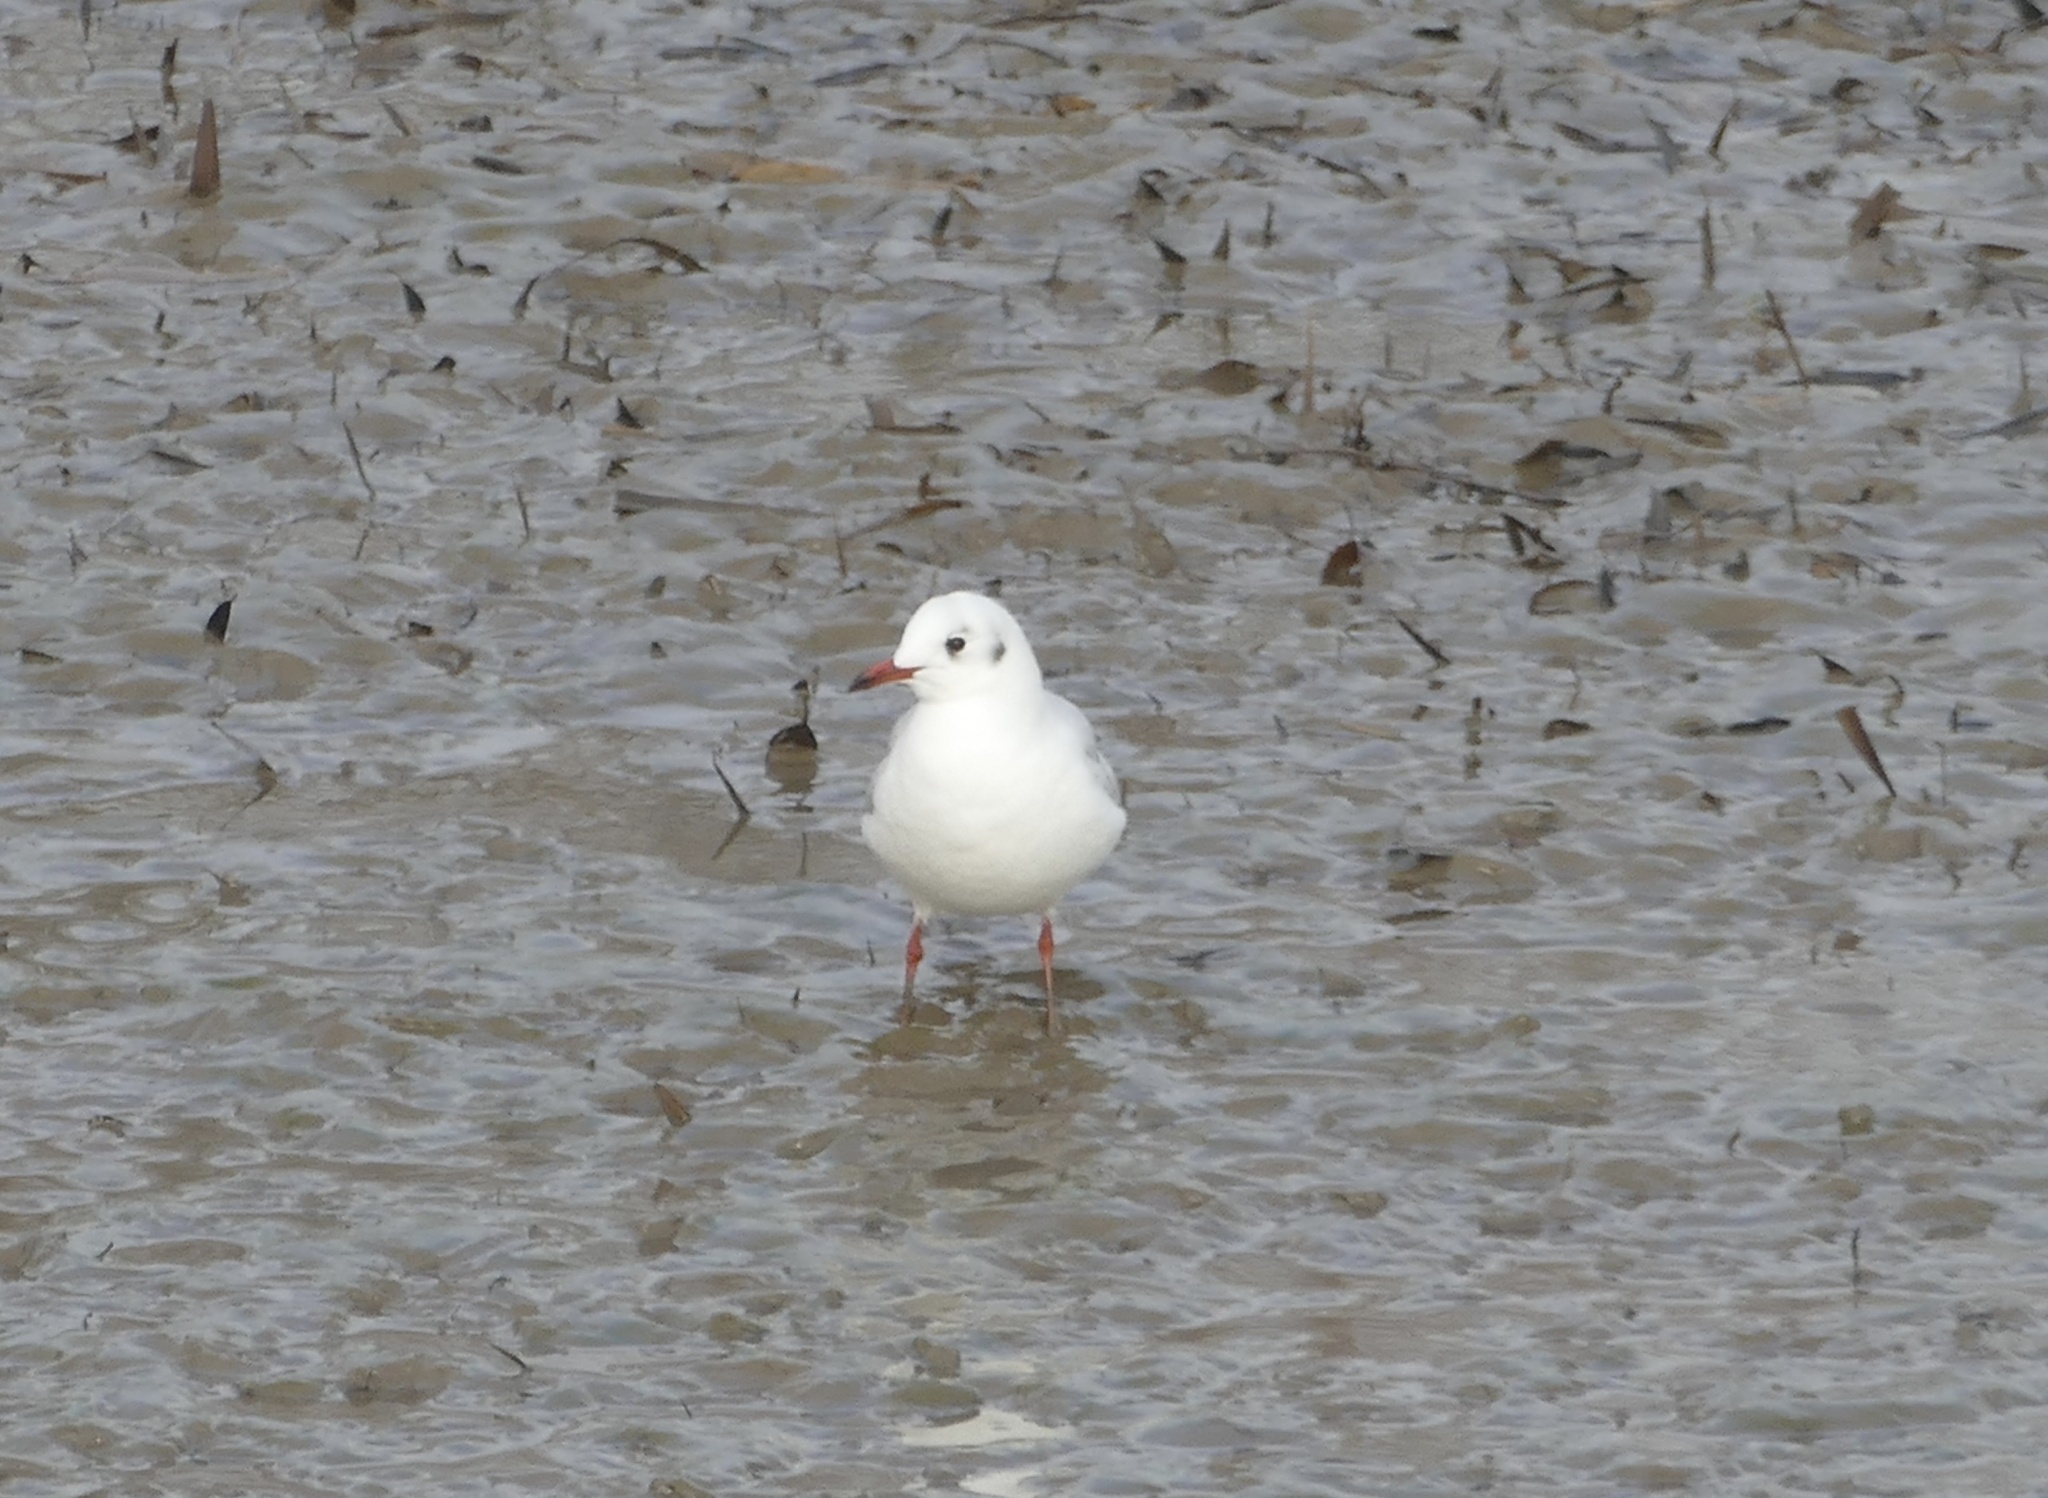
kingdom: Animalia
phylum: Chordata
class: Aves
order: Charadriiformes
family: Laridae
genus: Chroicocephalus
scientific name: Chroicocephalus ridibundus
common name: Black-headed gull
